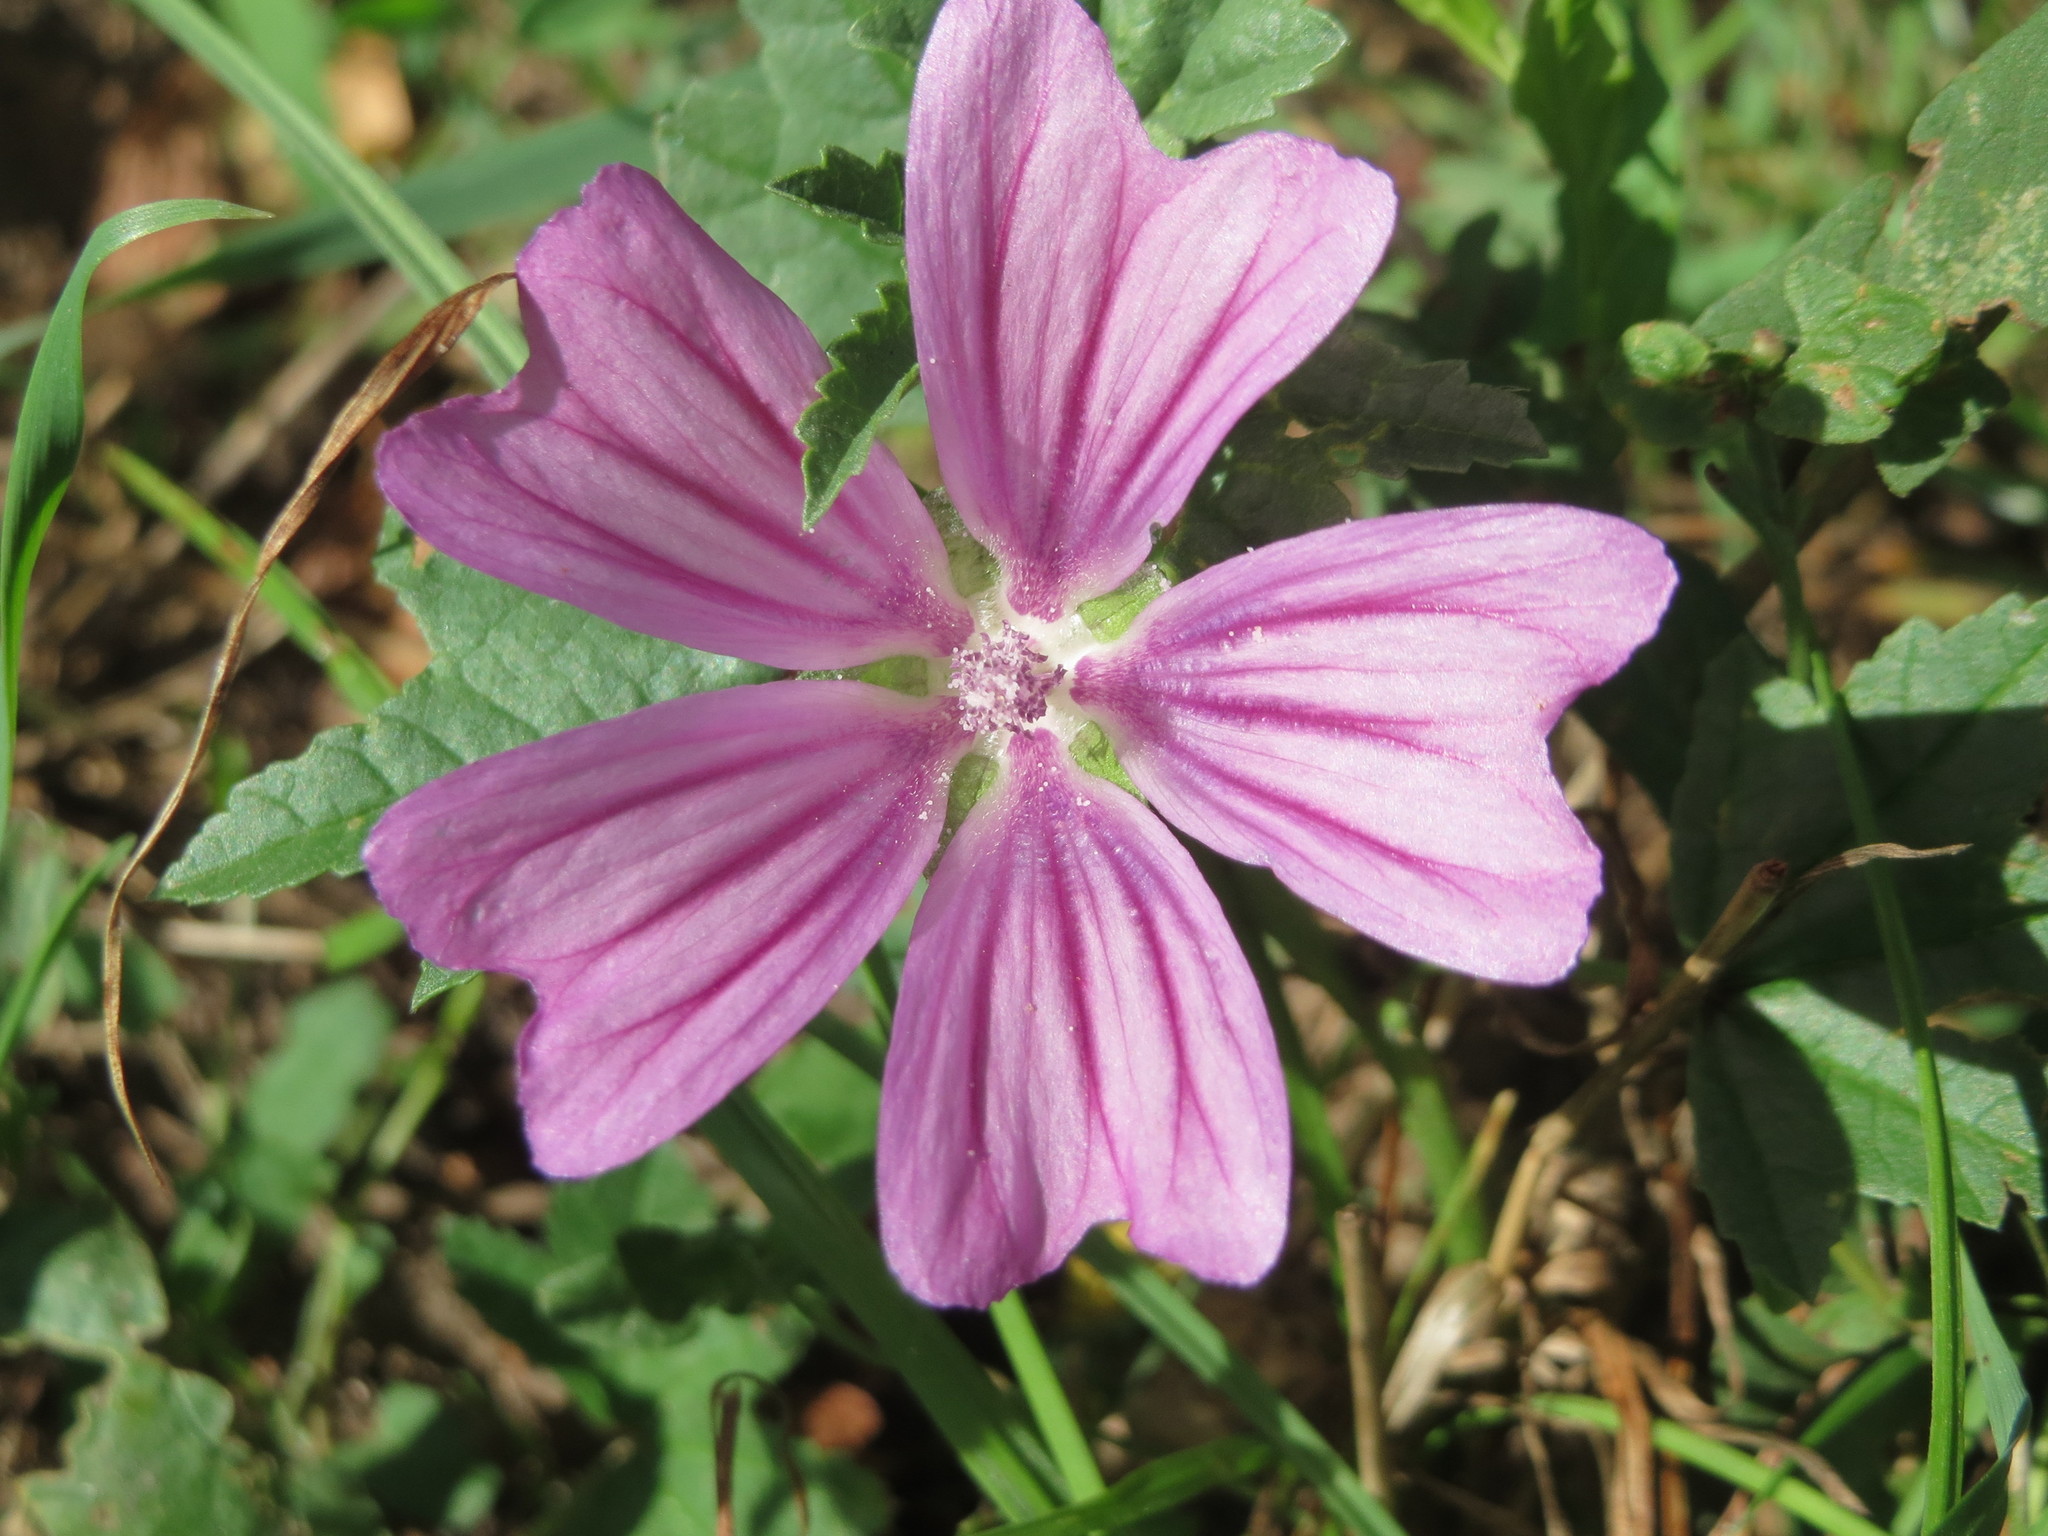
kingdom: Plantae
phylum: Tracheophyta
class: Magnoliopsida
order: Malvales
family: Malvaceae
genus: Malva
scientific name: Malva sylvestris
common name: Common mallow
